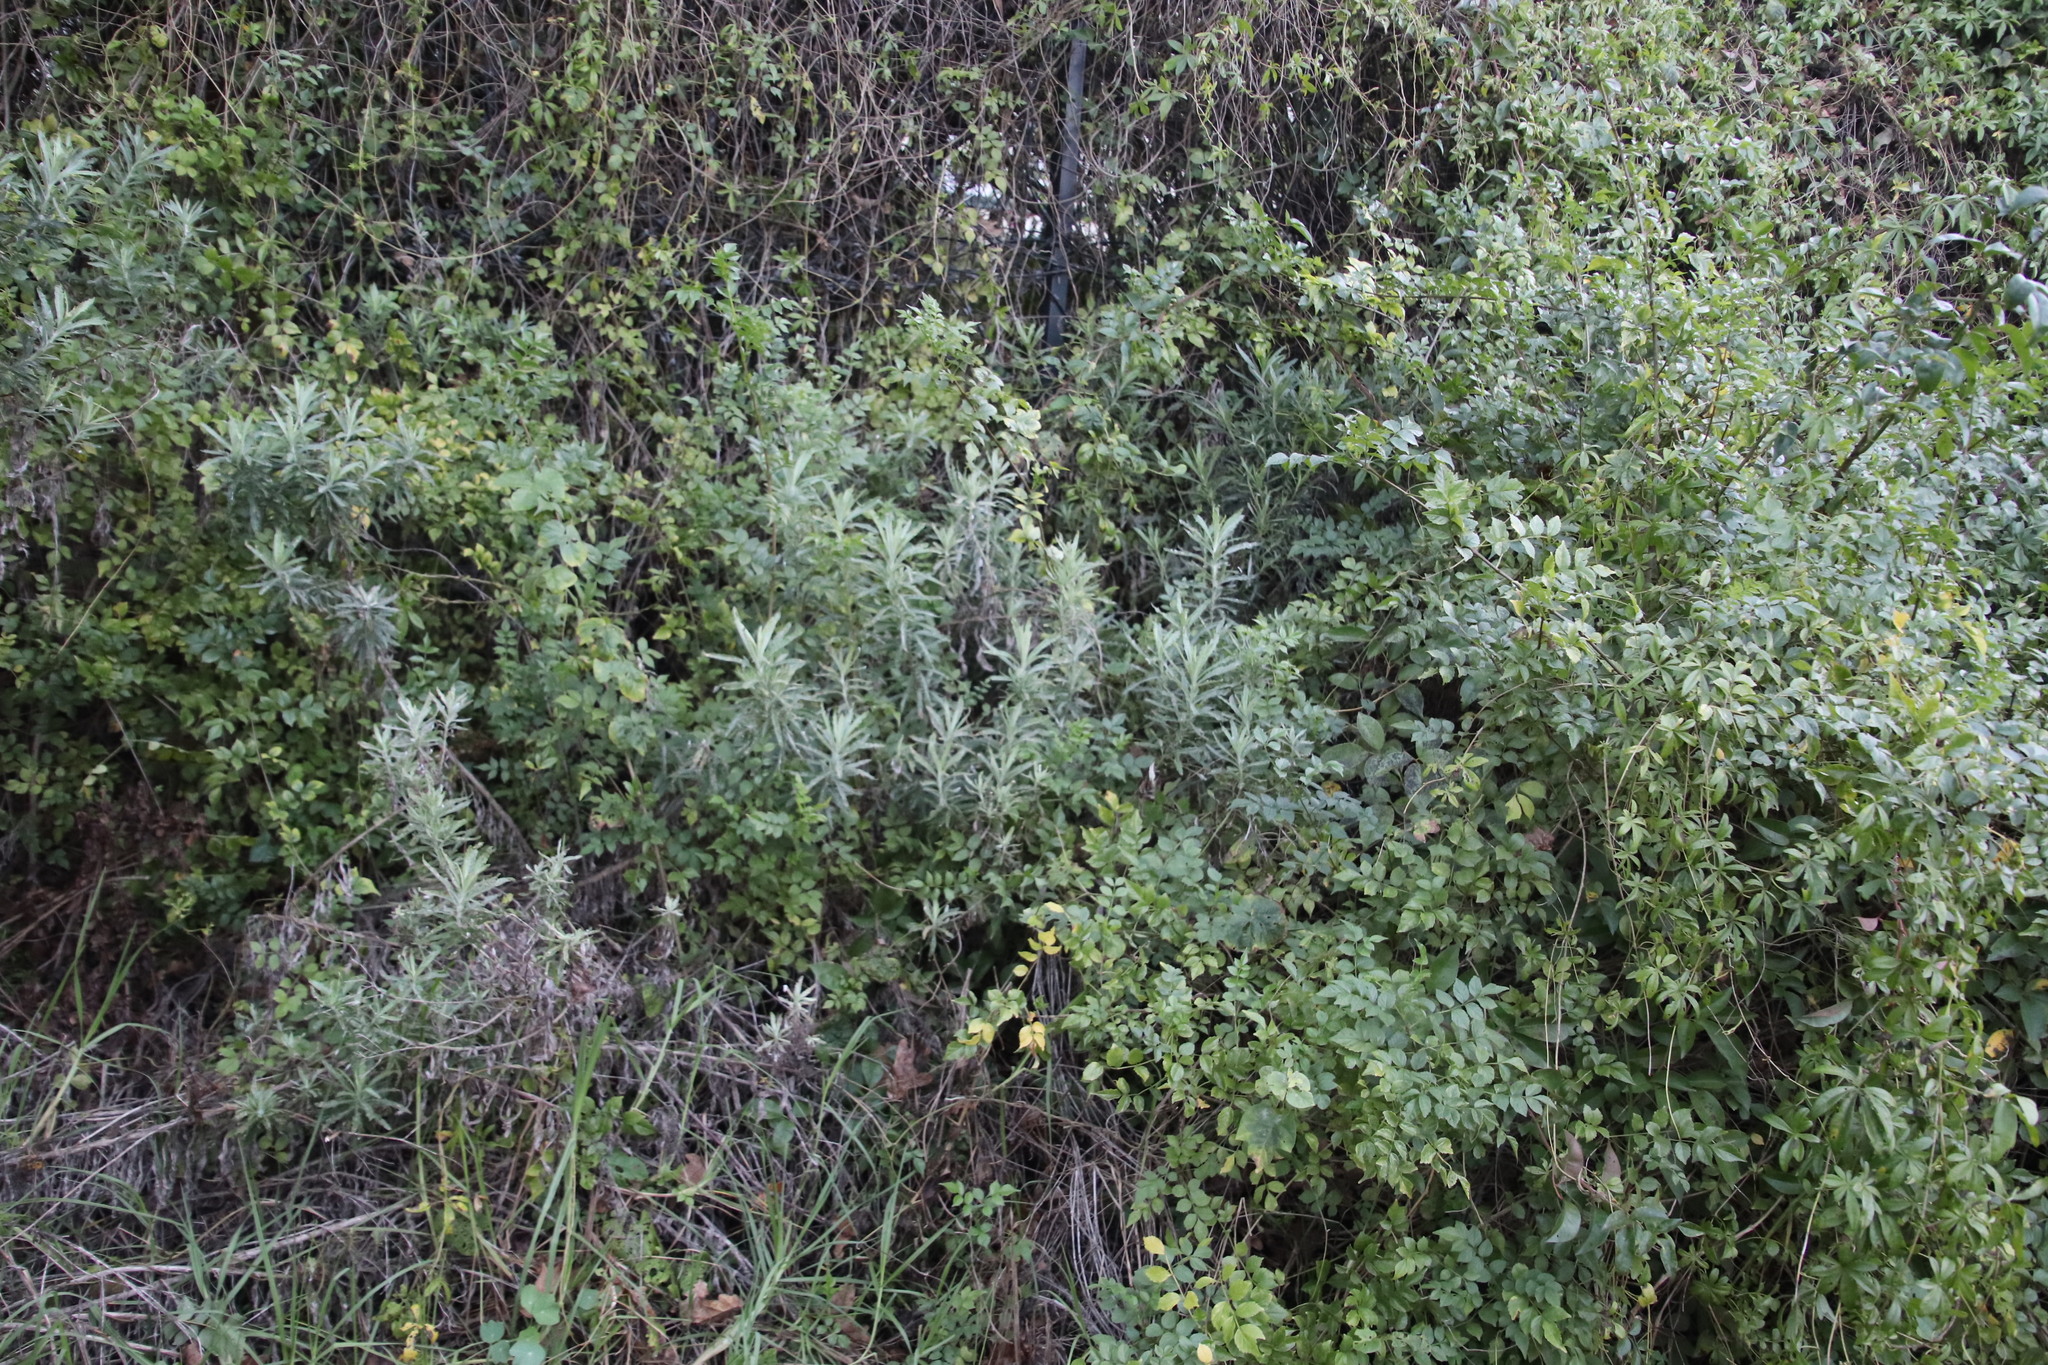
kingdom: Plantae
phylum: Tracheophyta
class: Magnoliopsida
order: Asterales
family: Asteraceae
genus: Senecio
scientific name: Senecio pterophorus
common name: Shoddy ragwort
